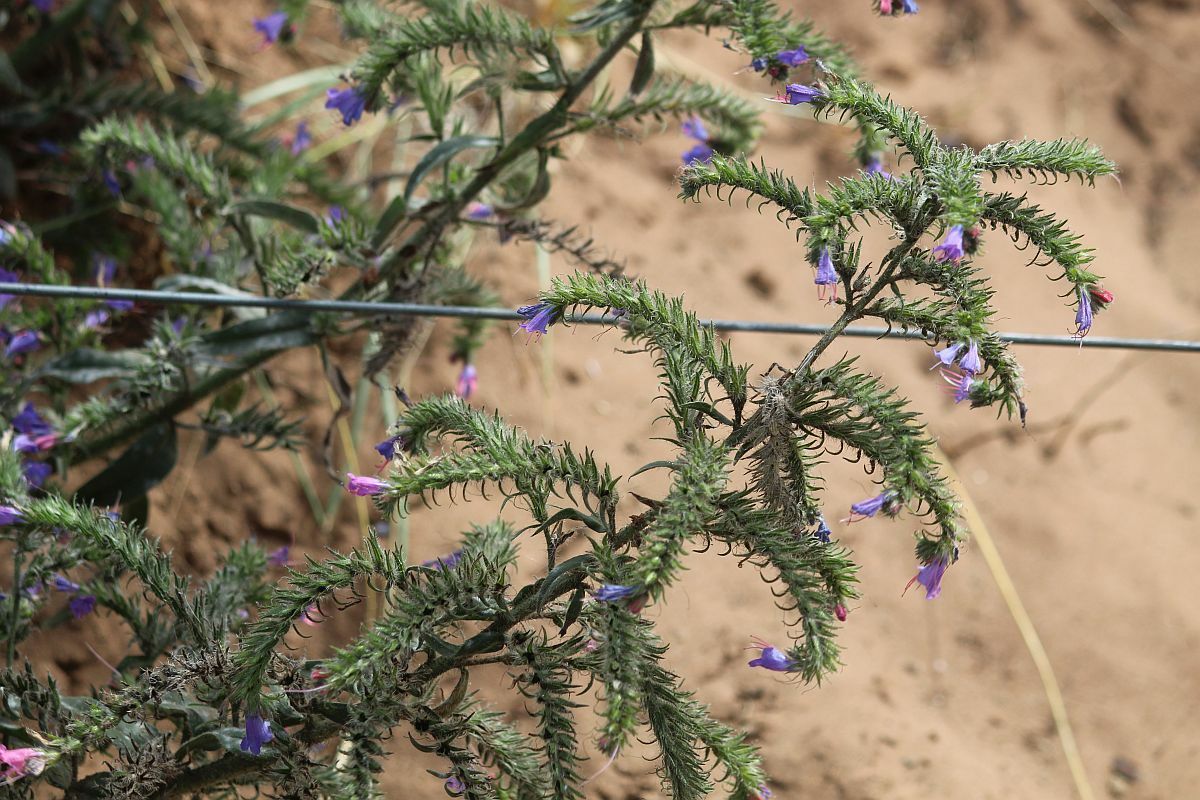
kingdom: Plantae
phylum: Tracheophyta
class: Magnoliopsida
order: Boraginales
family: Boraginaceae
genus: Echium
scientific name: Echium vulgare
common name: Common viper's bugloss
